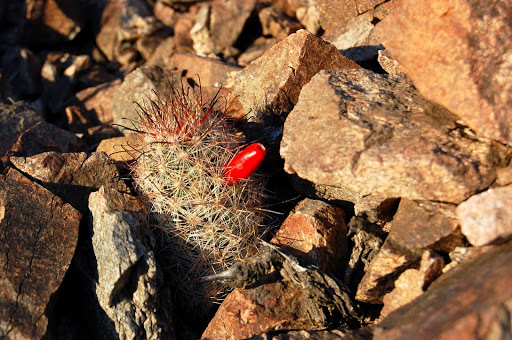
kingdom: Plantae
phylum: Tracheophyta
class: Magnoliopsida
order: Caryophyllales
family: Cactaceae
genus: Cochemiea
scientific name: Cochemiea tetrancistra
